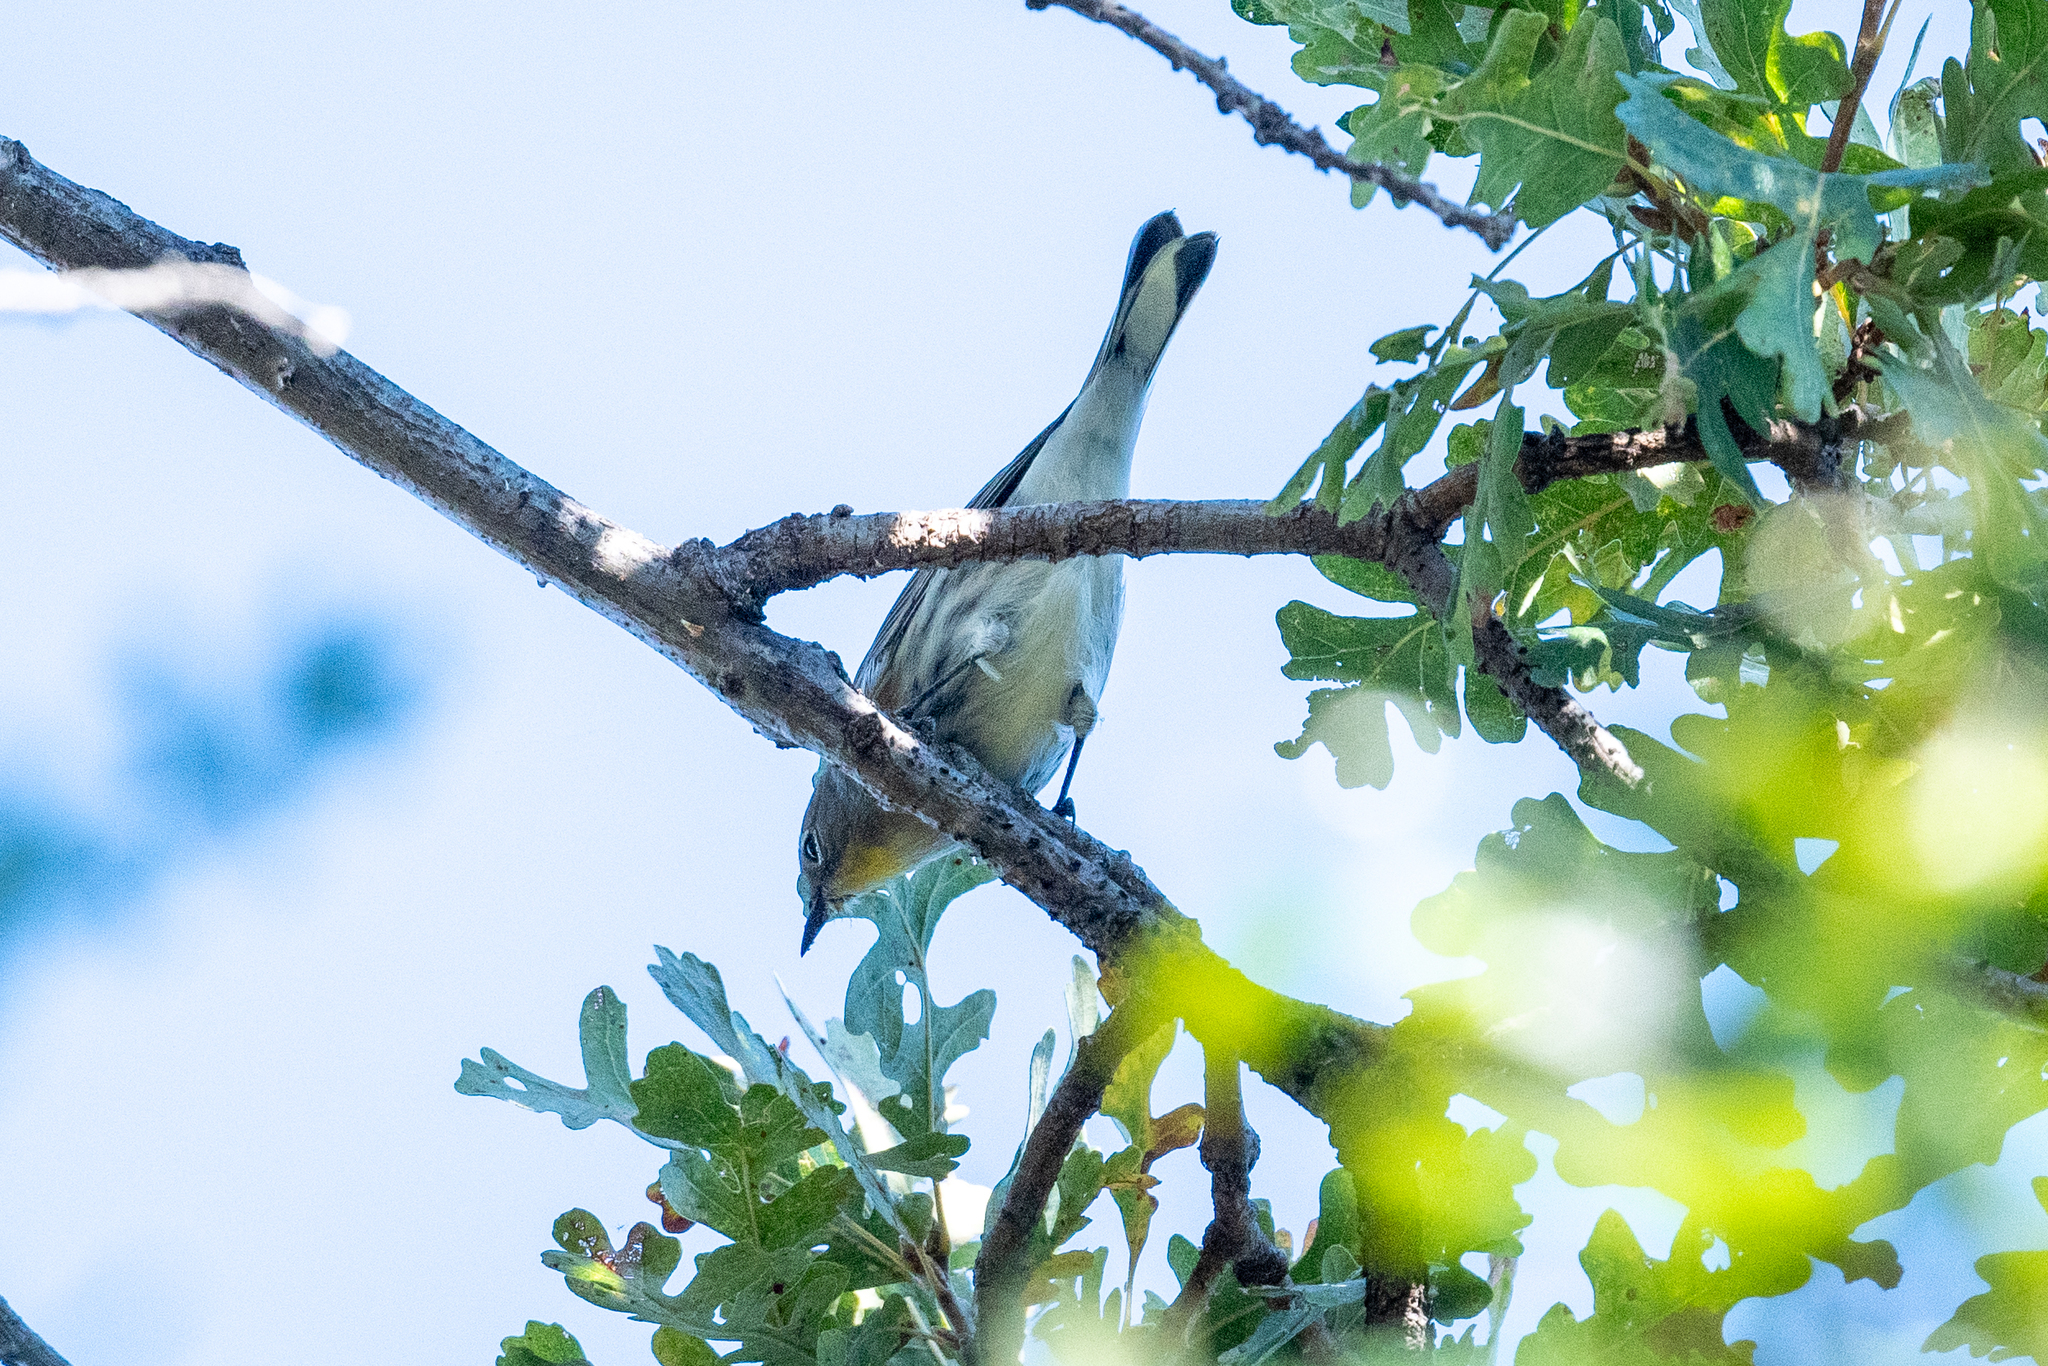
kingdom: Animalia
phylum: Chordata
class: Aves
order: Passeriformes
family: Parulidae
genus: Setophaga
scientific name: Setophaga coronata
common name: Myrtle warbler
